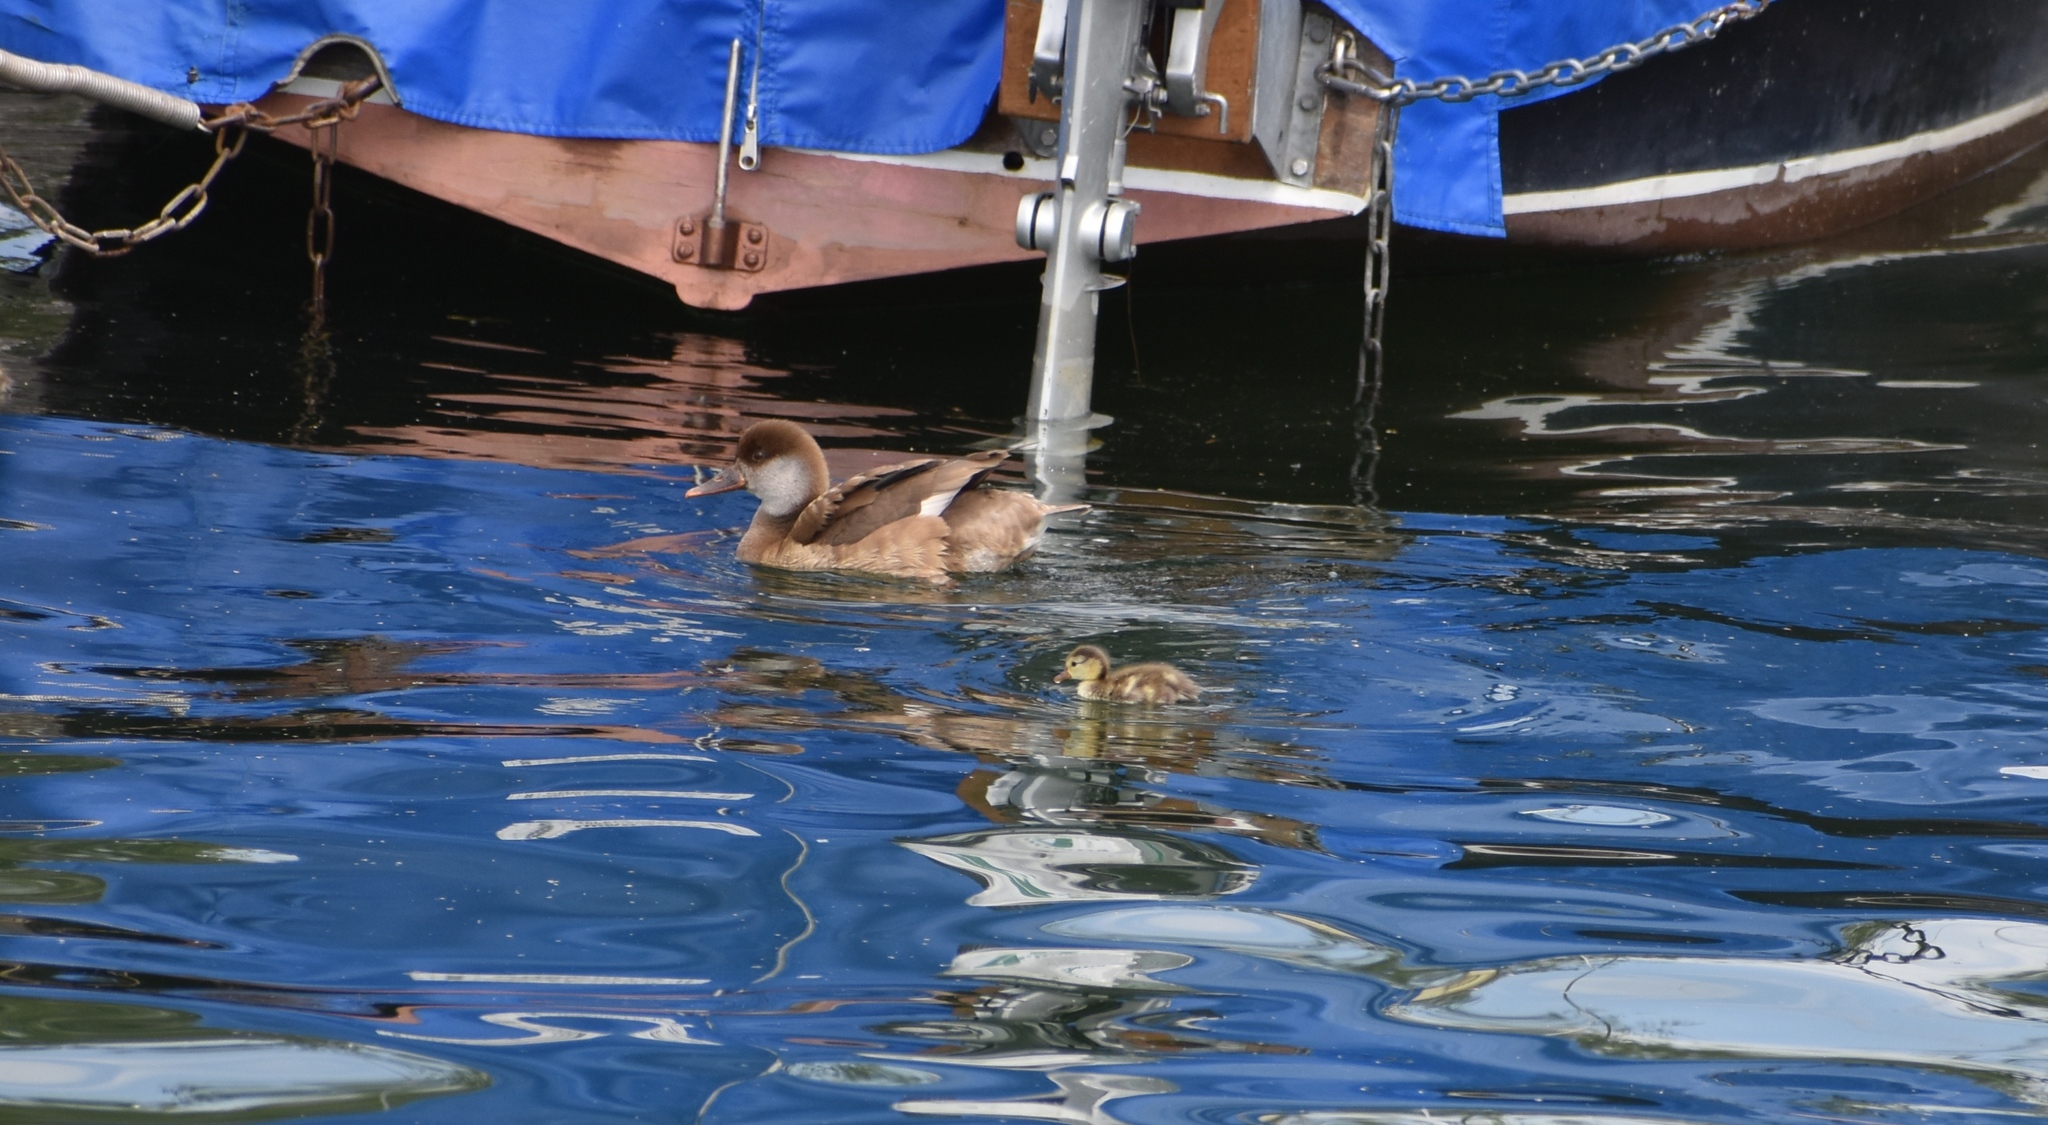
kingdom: Animalia
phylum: Chordata
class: Aves
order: Anseriformes
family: Anatidae
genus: Netta
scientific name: Netta rufina
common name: Red-crested pochard
